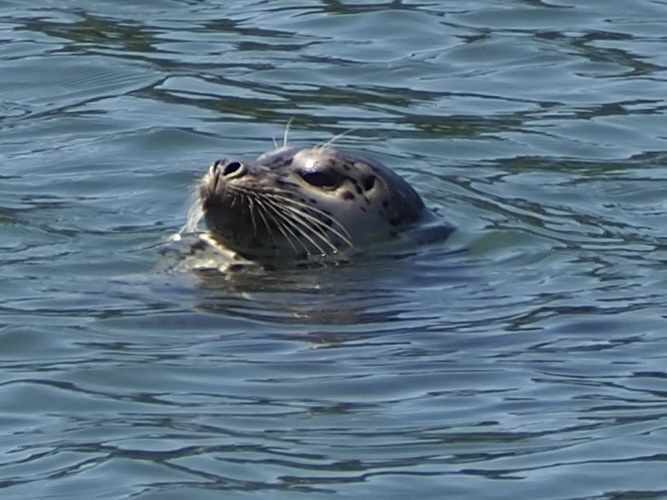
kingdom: Animalia
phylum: Chordata
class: Mammalia
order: Carnivora
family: Phocidae
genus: Phoca
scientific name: Phoca vitulina
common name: Harbor seal
